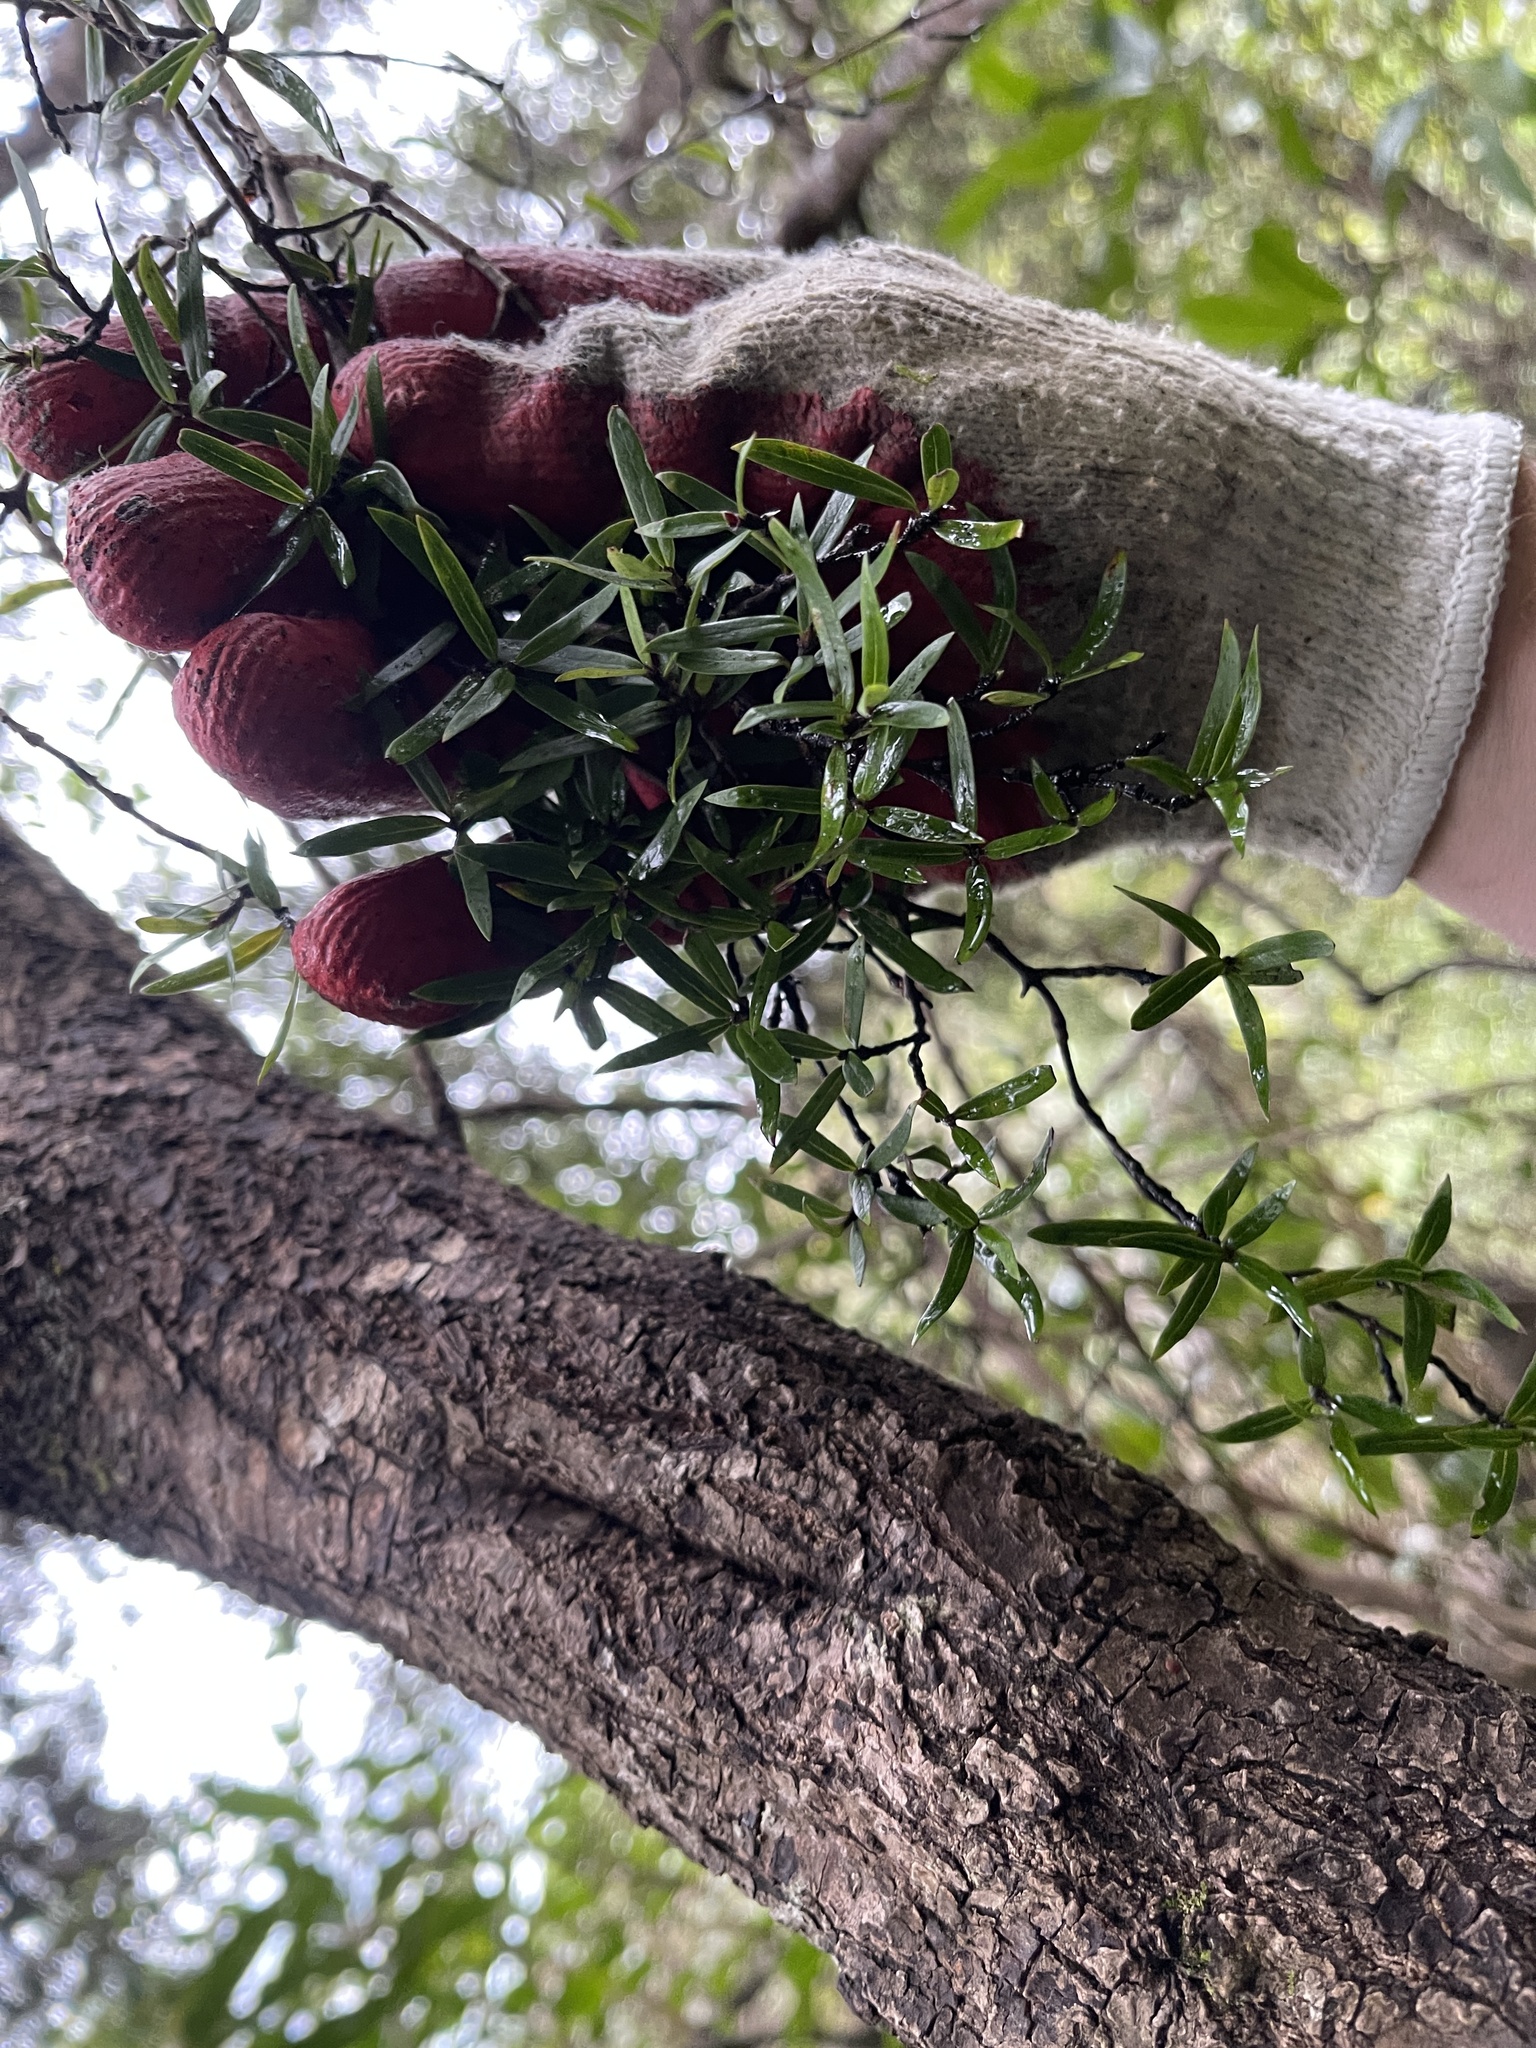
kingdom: Plantae
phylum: Tracheophyta
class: Magnoliopsida
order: Gentianales
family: Rubiaceae
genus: Coprosma
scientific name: Coprosma linariifolia
